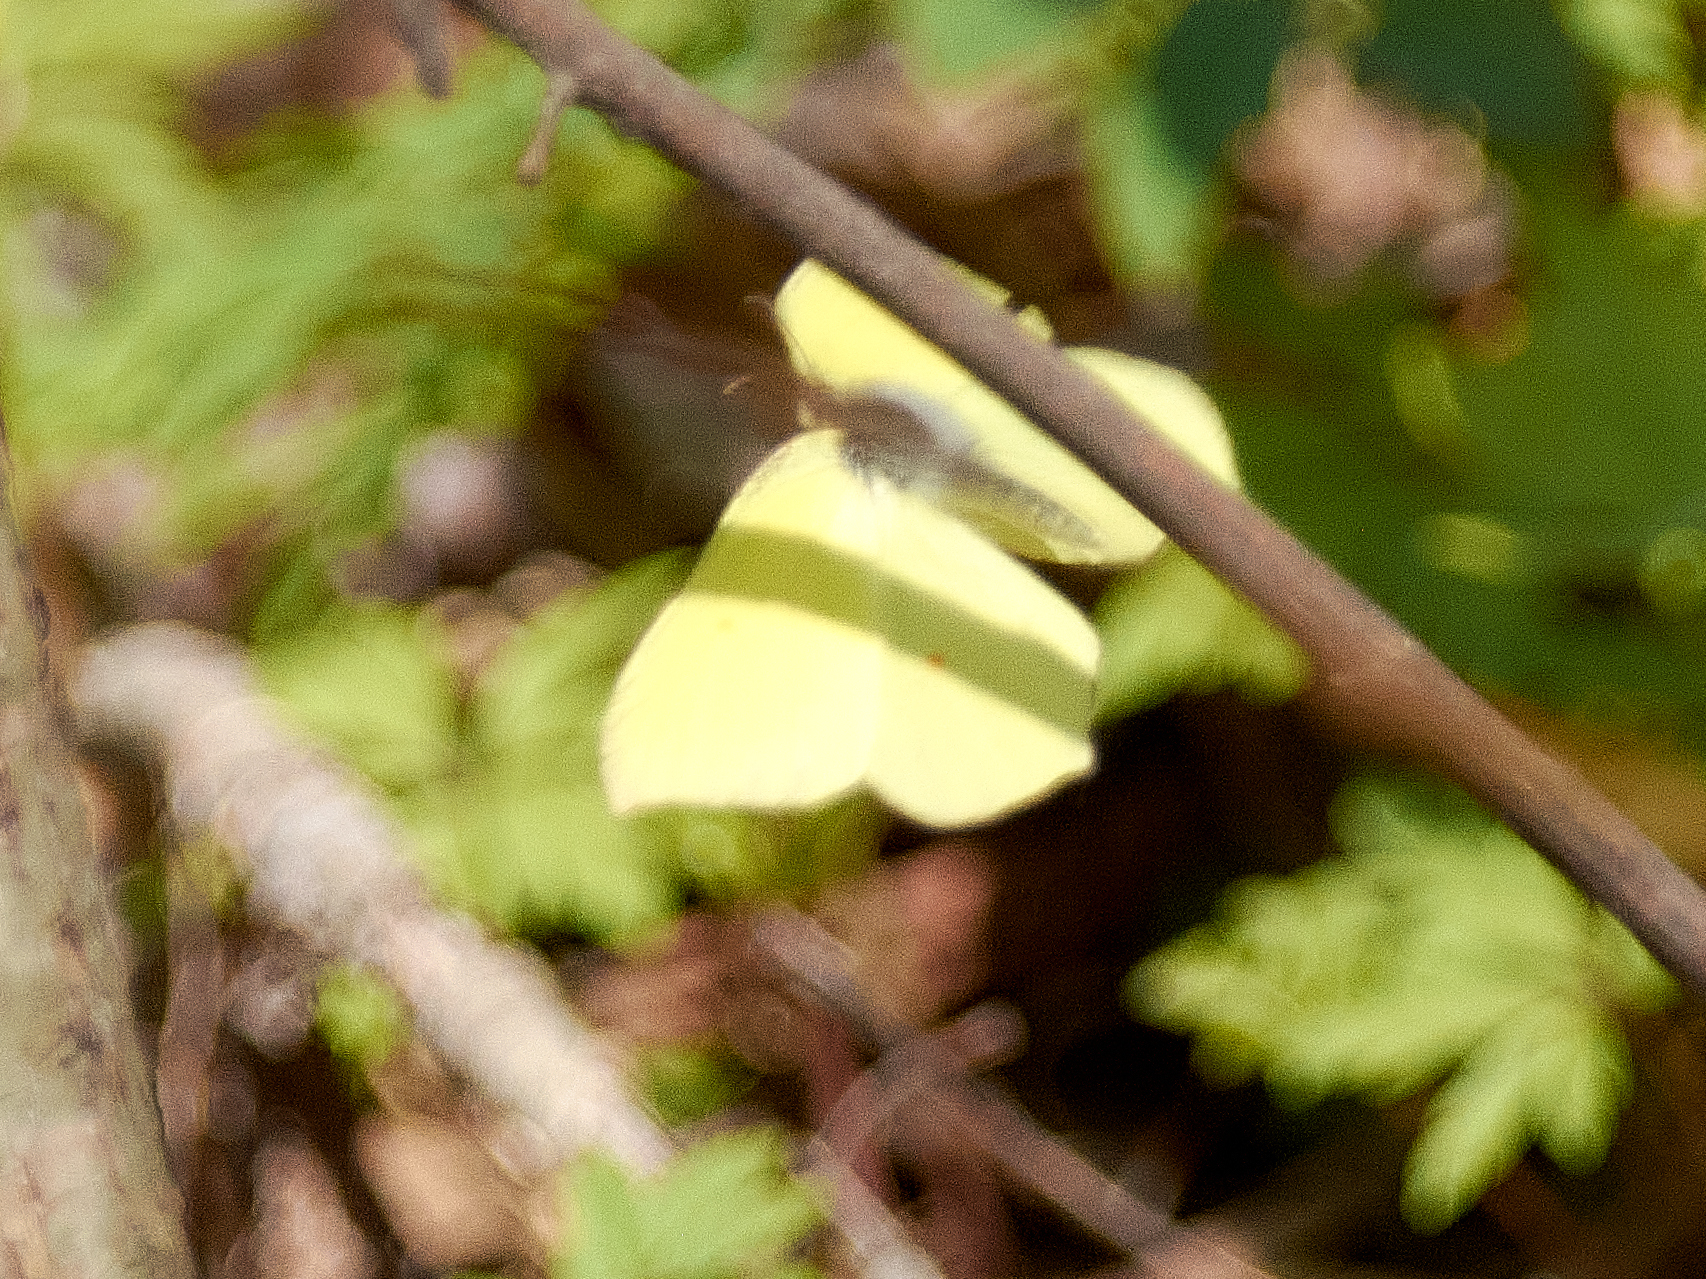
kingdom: Animalia
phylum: Arthropoda
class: Insecta
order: Lepidoptera
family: Pieridae
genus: Gonepteryx
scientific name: Gonepteryx rhamni
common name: Brimstone
